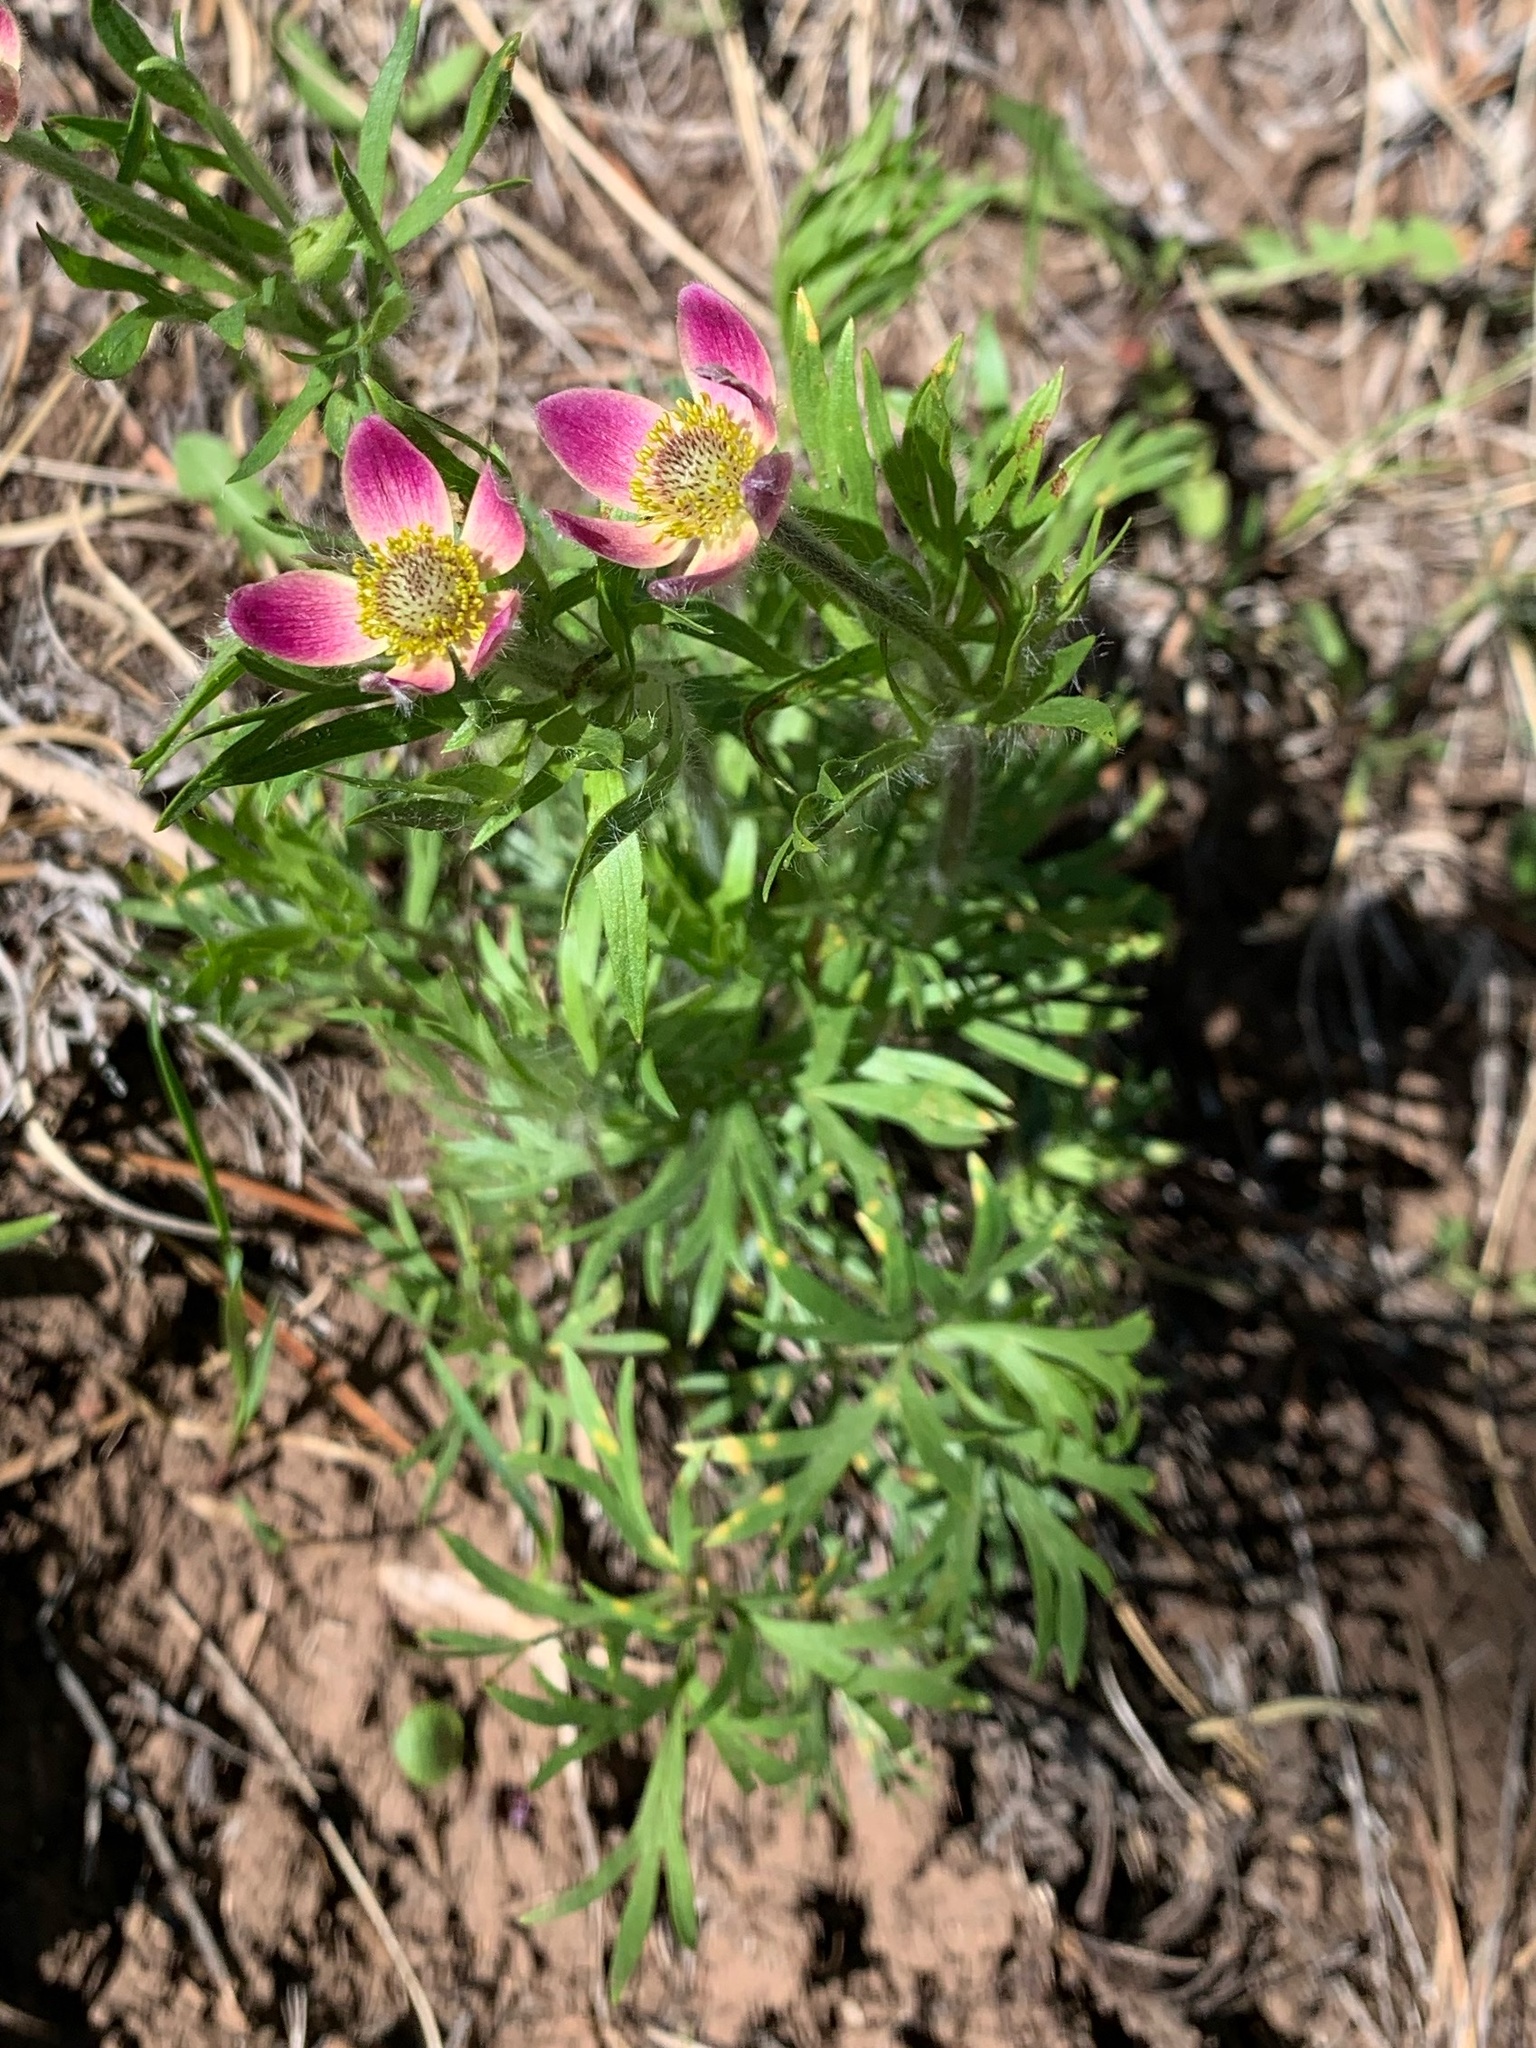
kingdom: Plantae
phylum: Tracheophyta
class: Magnoliopsida
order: Ranunculales
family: Ranunculaceae
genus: Anemone
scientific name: Anemone multifida
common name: Bird's-foot anemone
